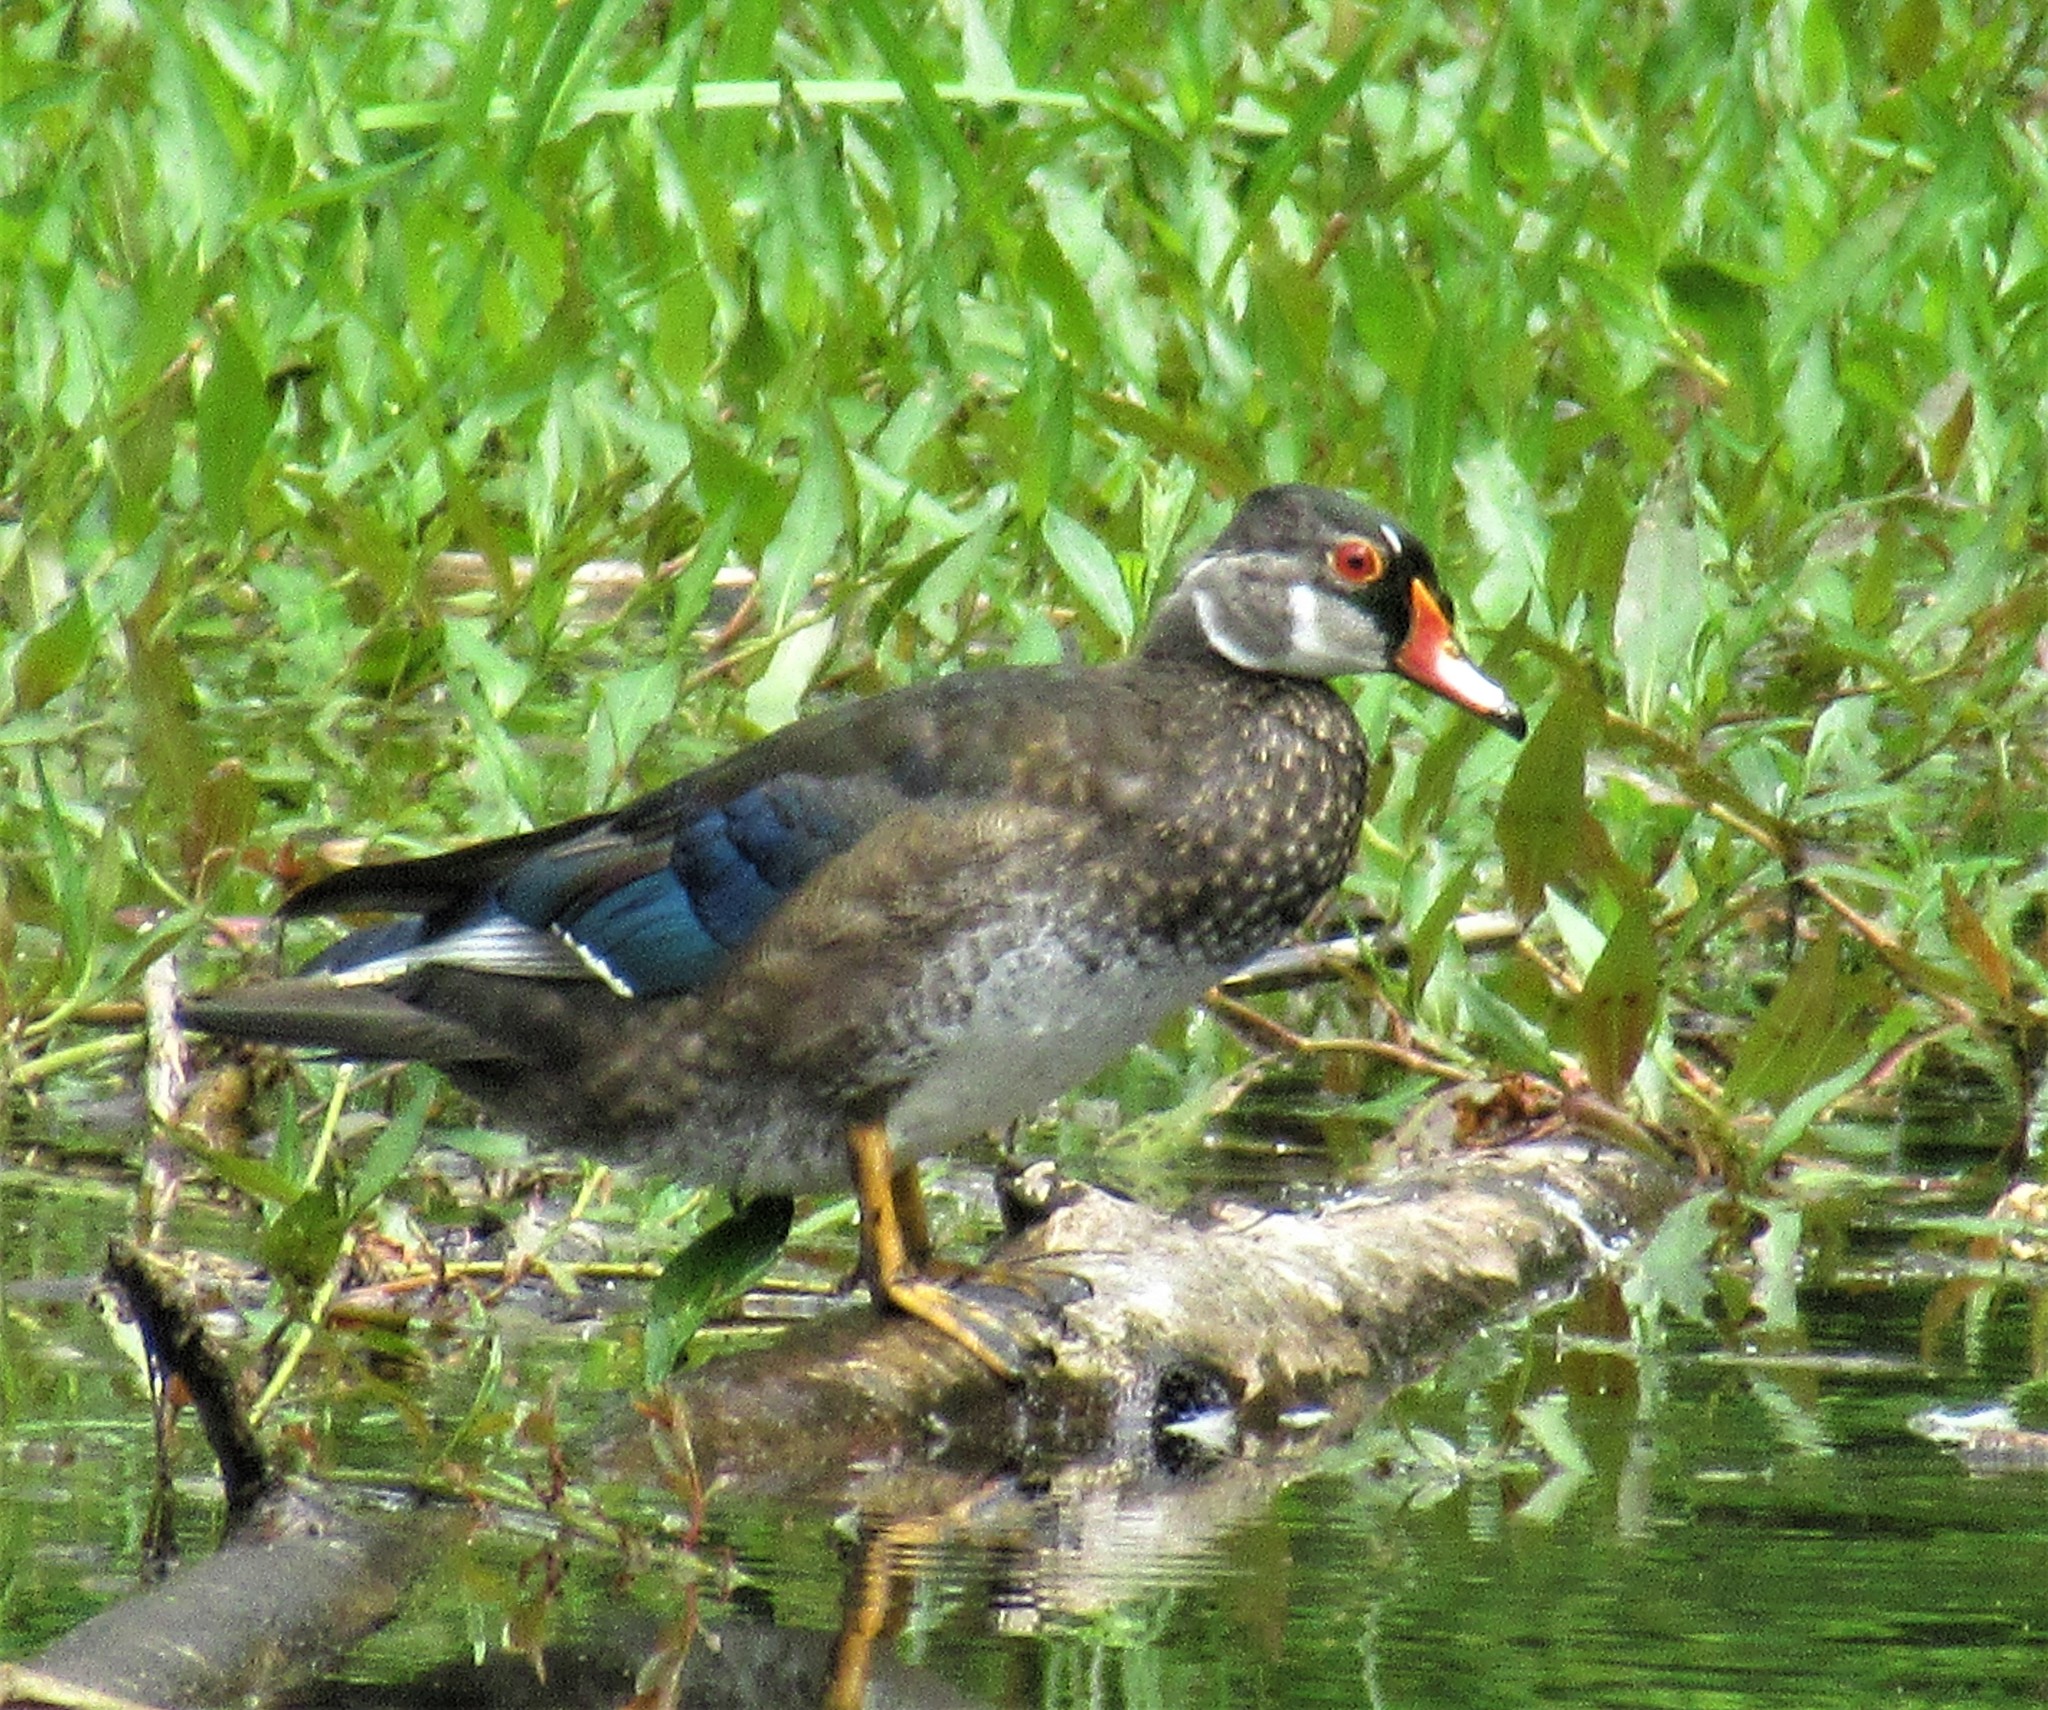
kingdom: Animalia
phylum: Chordata
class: Aves
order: Anseriformes
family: Anatidae
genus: Aix
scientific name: Aix sponsa
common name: Wood duck
